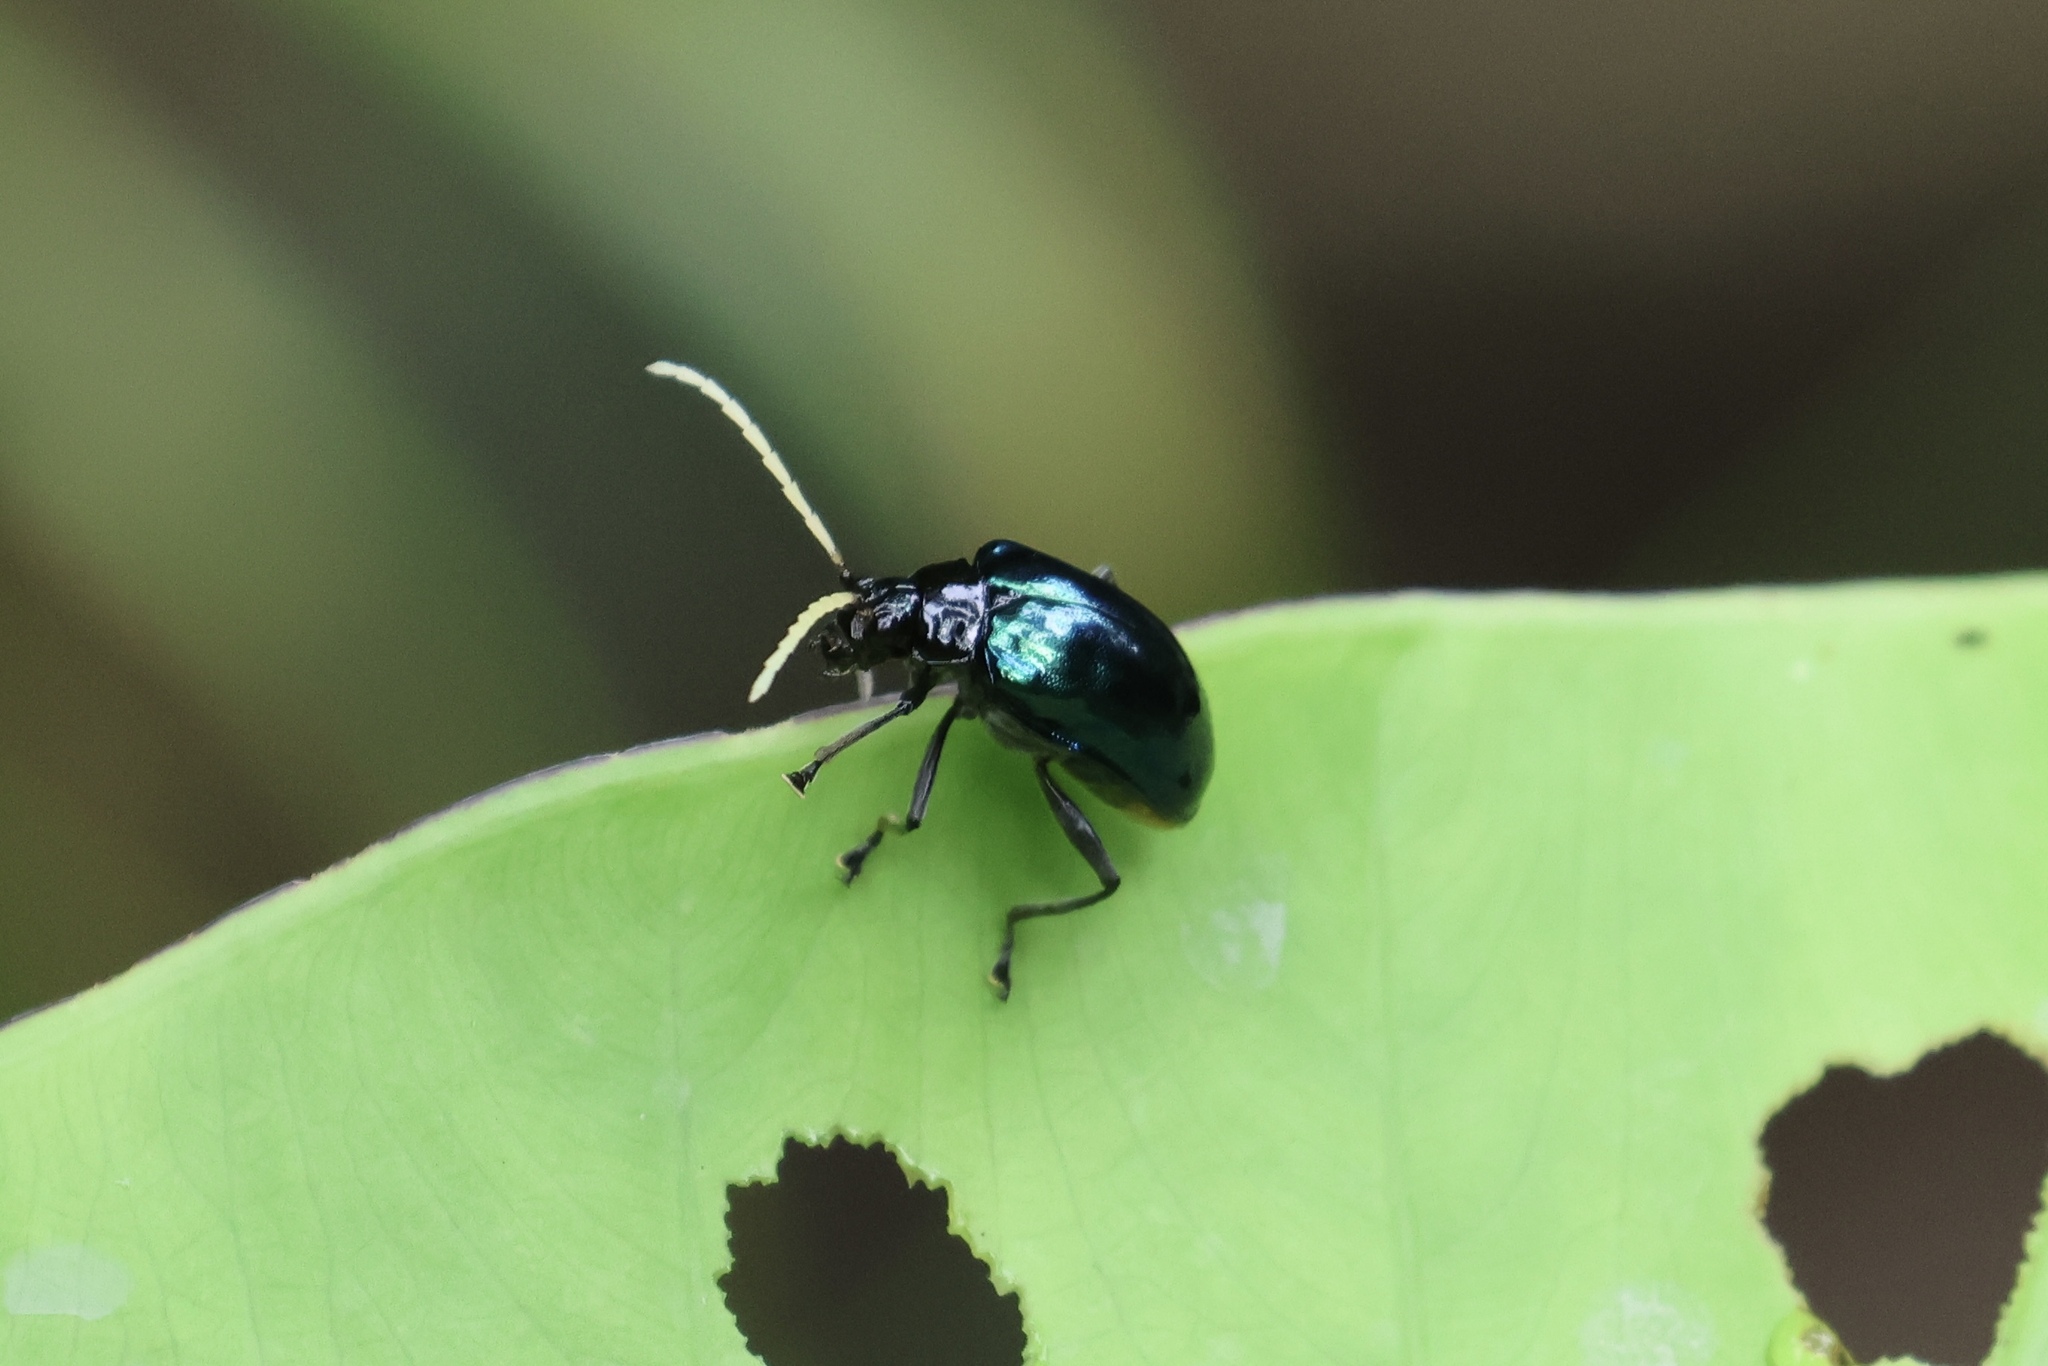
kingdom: Animalia
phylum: Arthropoda
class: Insecta
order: Coleoptera
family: Chrysomelidae
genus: Aplosonyx
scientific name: Aplosonyx
